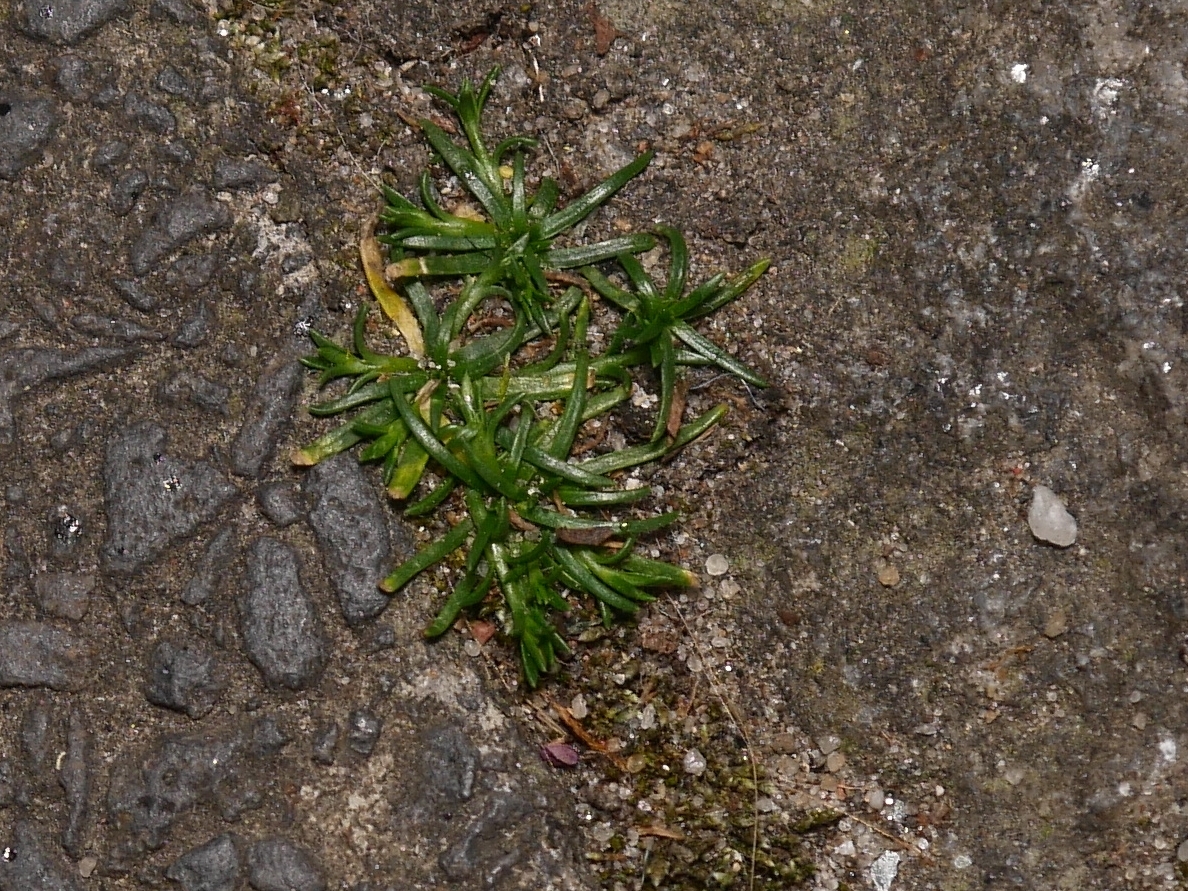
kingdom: Plantae
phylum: Tracheophyta
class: Magnoliopsida
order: Caryophyllales
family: Caryophyllaceae
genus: Sagina
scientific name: Sagina procumbens
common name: Procumbent pearlwort
